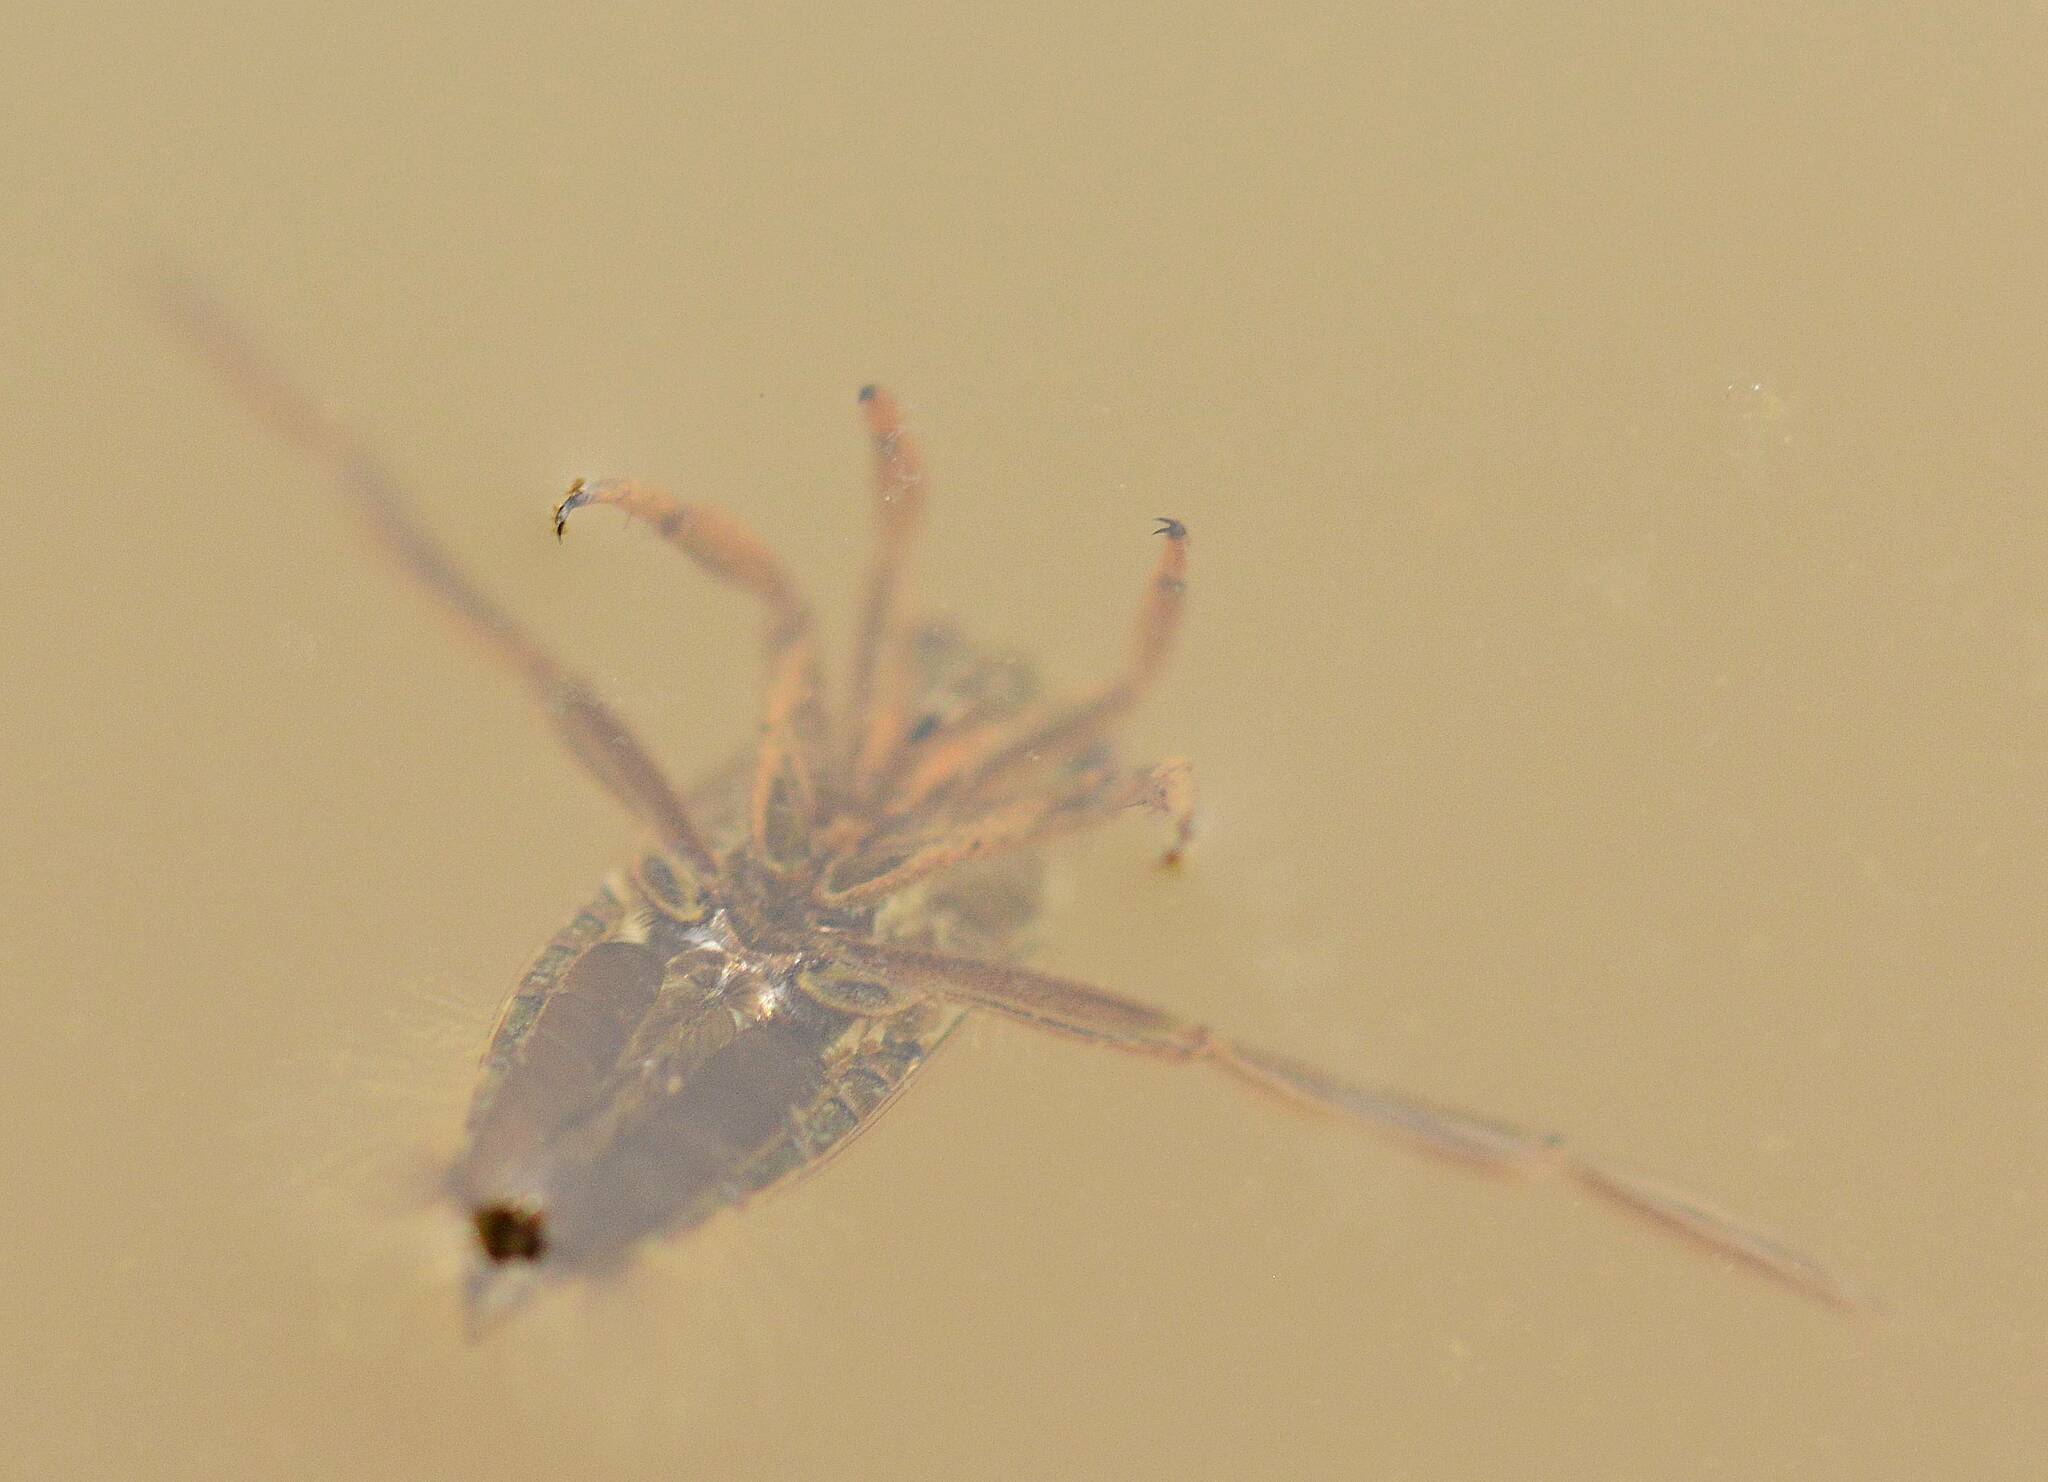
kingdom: Animalia
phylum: Arthropoda
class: Insecta
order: Hemiptera
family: Notonectidae
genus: Notonecta
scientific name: Notonecta
